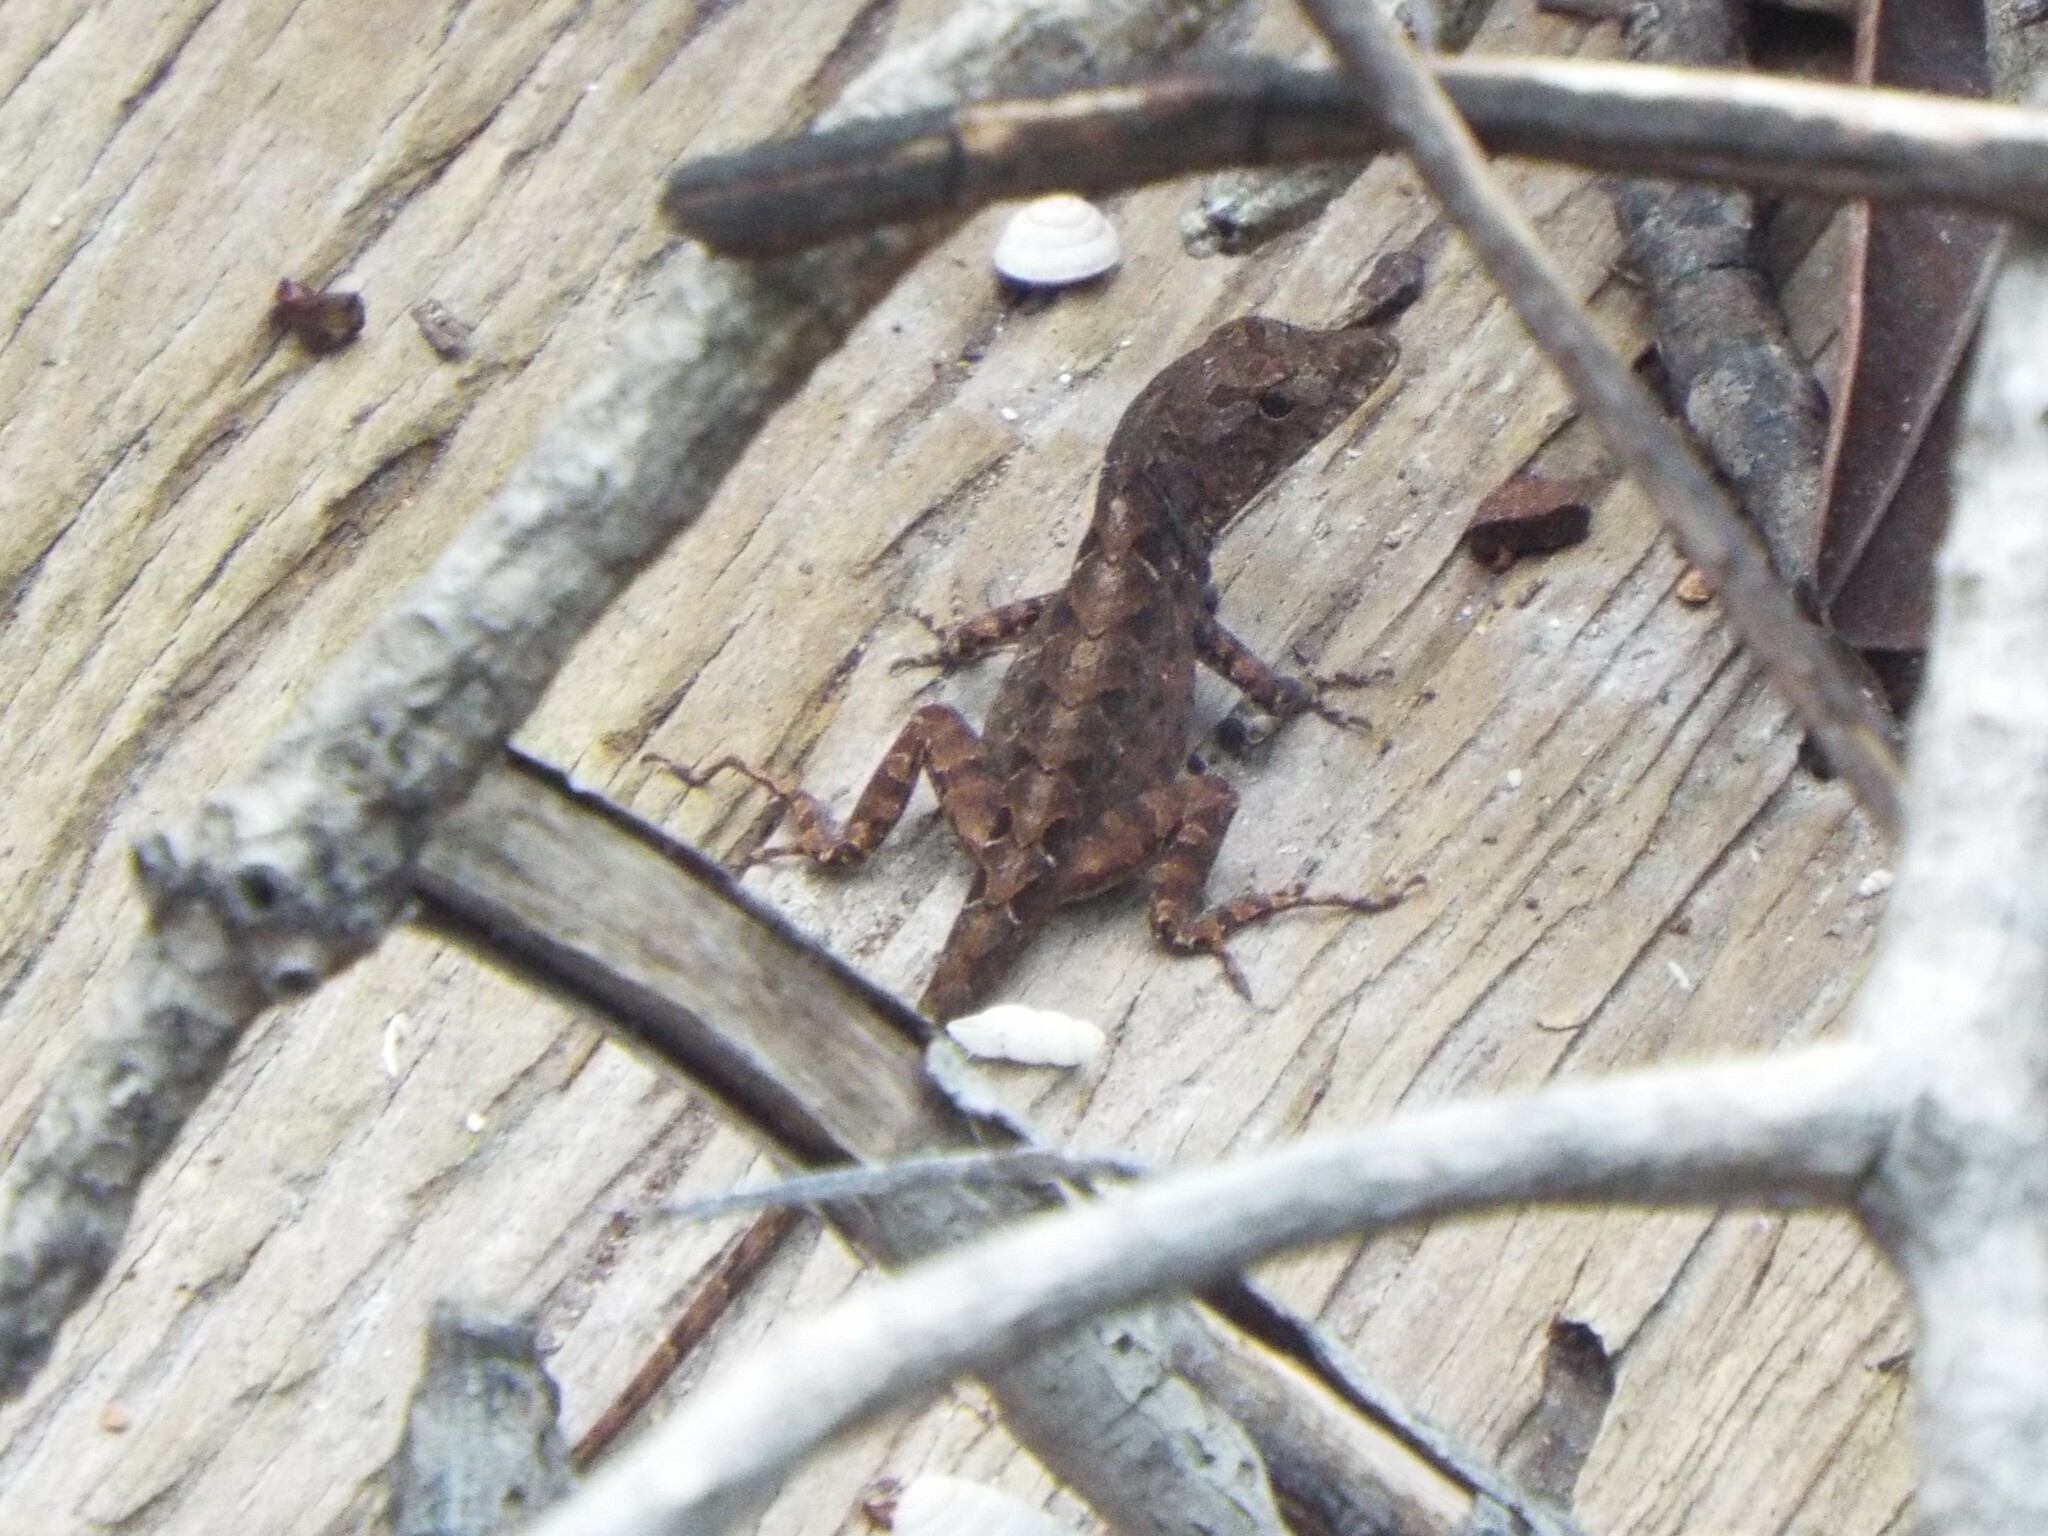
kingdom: Animalia
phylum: Chordata
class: Squamata
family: Dactyloidae
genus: Anolis
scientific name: Anolis sagrei
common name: Brown anole
